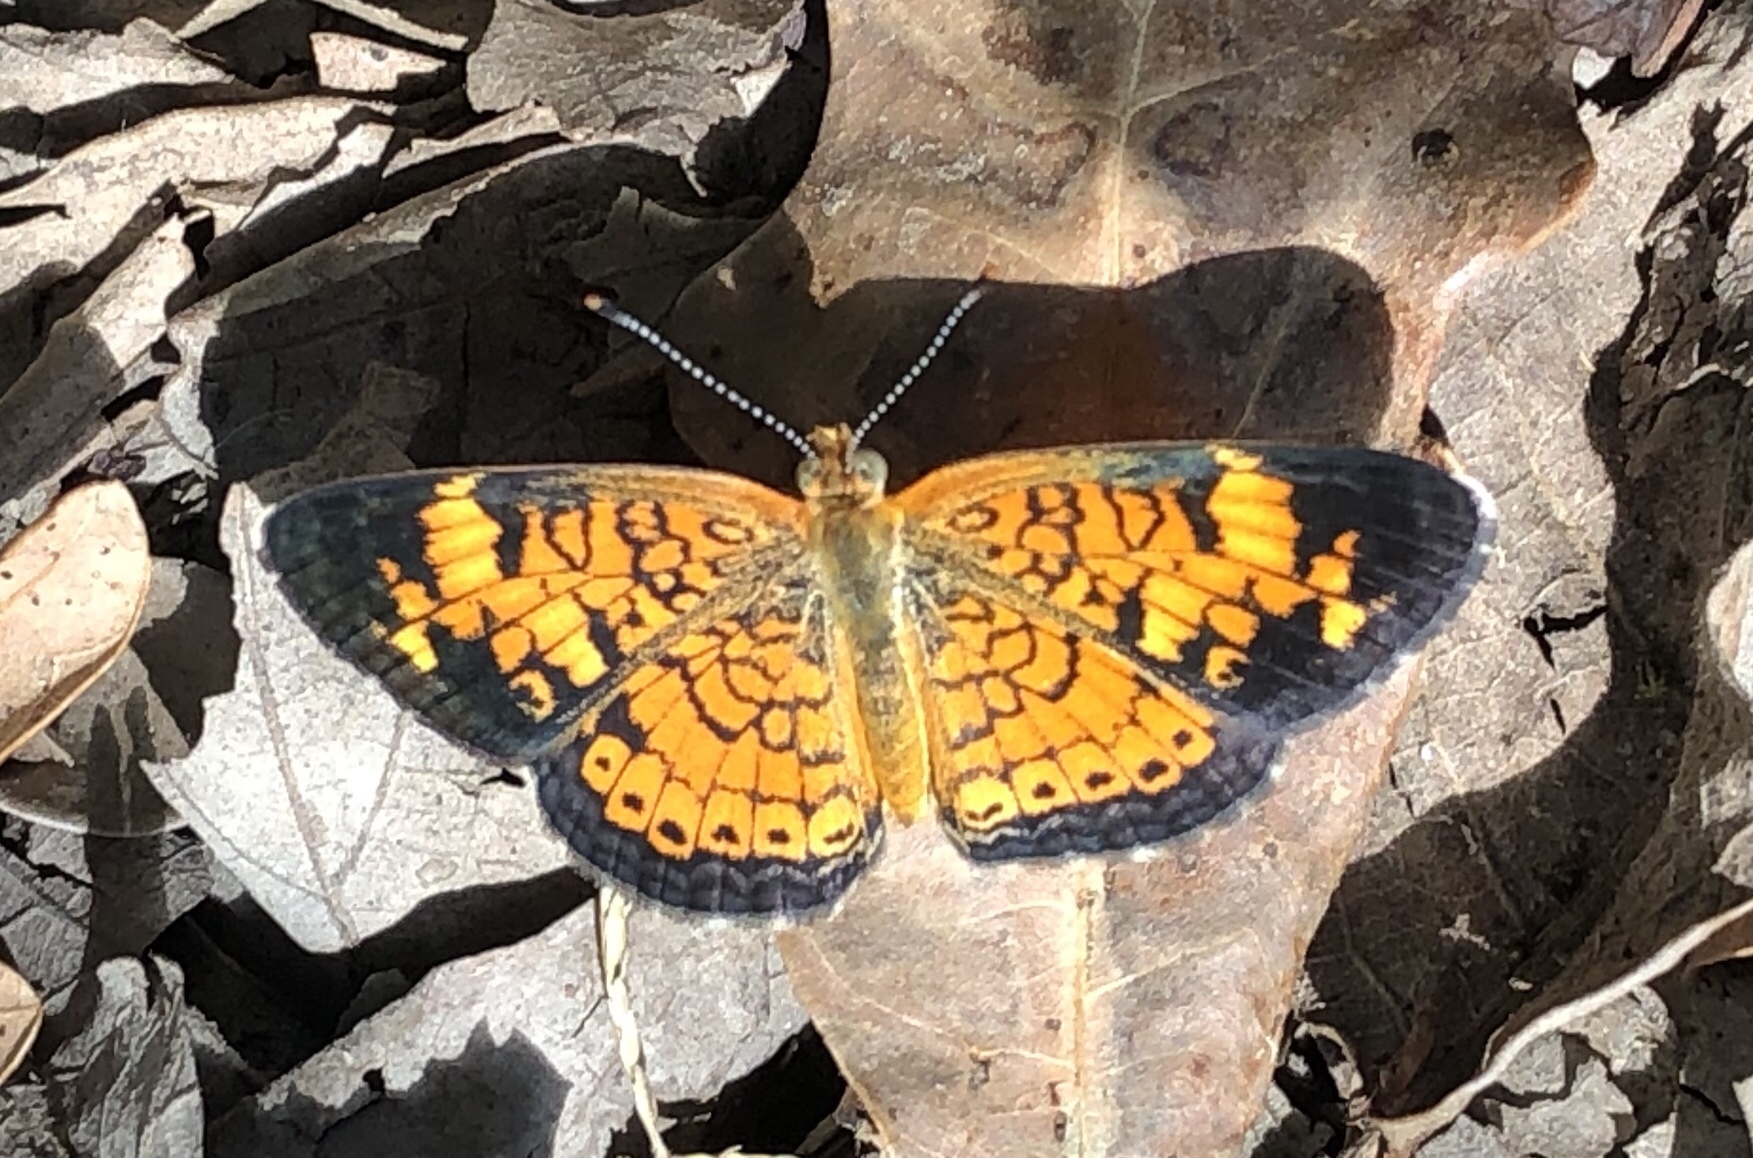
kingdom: Animalia
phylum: Arthropoda
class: Insecta
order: Lepidoptera
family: Nymphalidae
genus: Phyciodes
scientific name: Phyciodes tharos
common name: Pearl crescent
